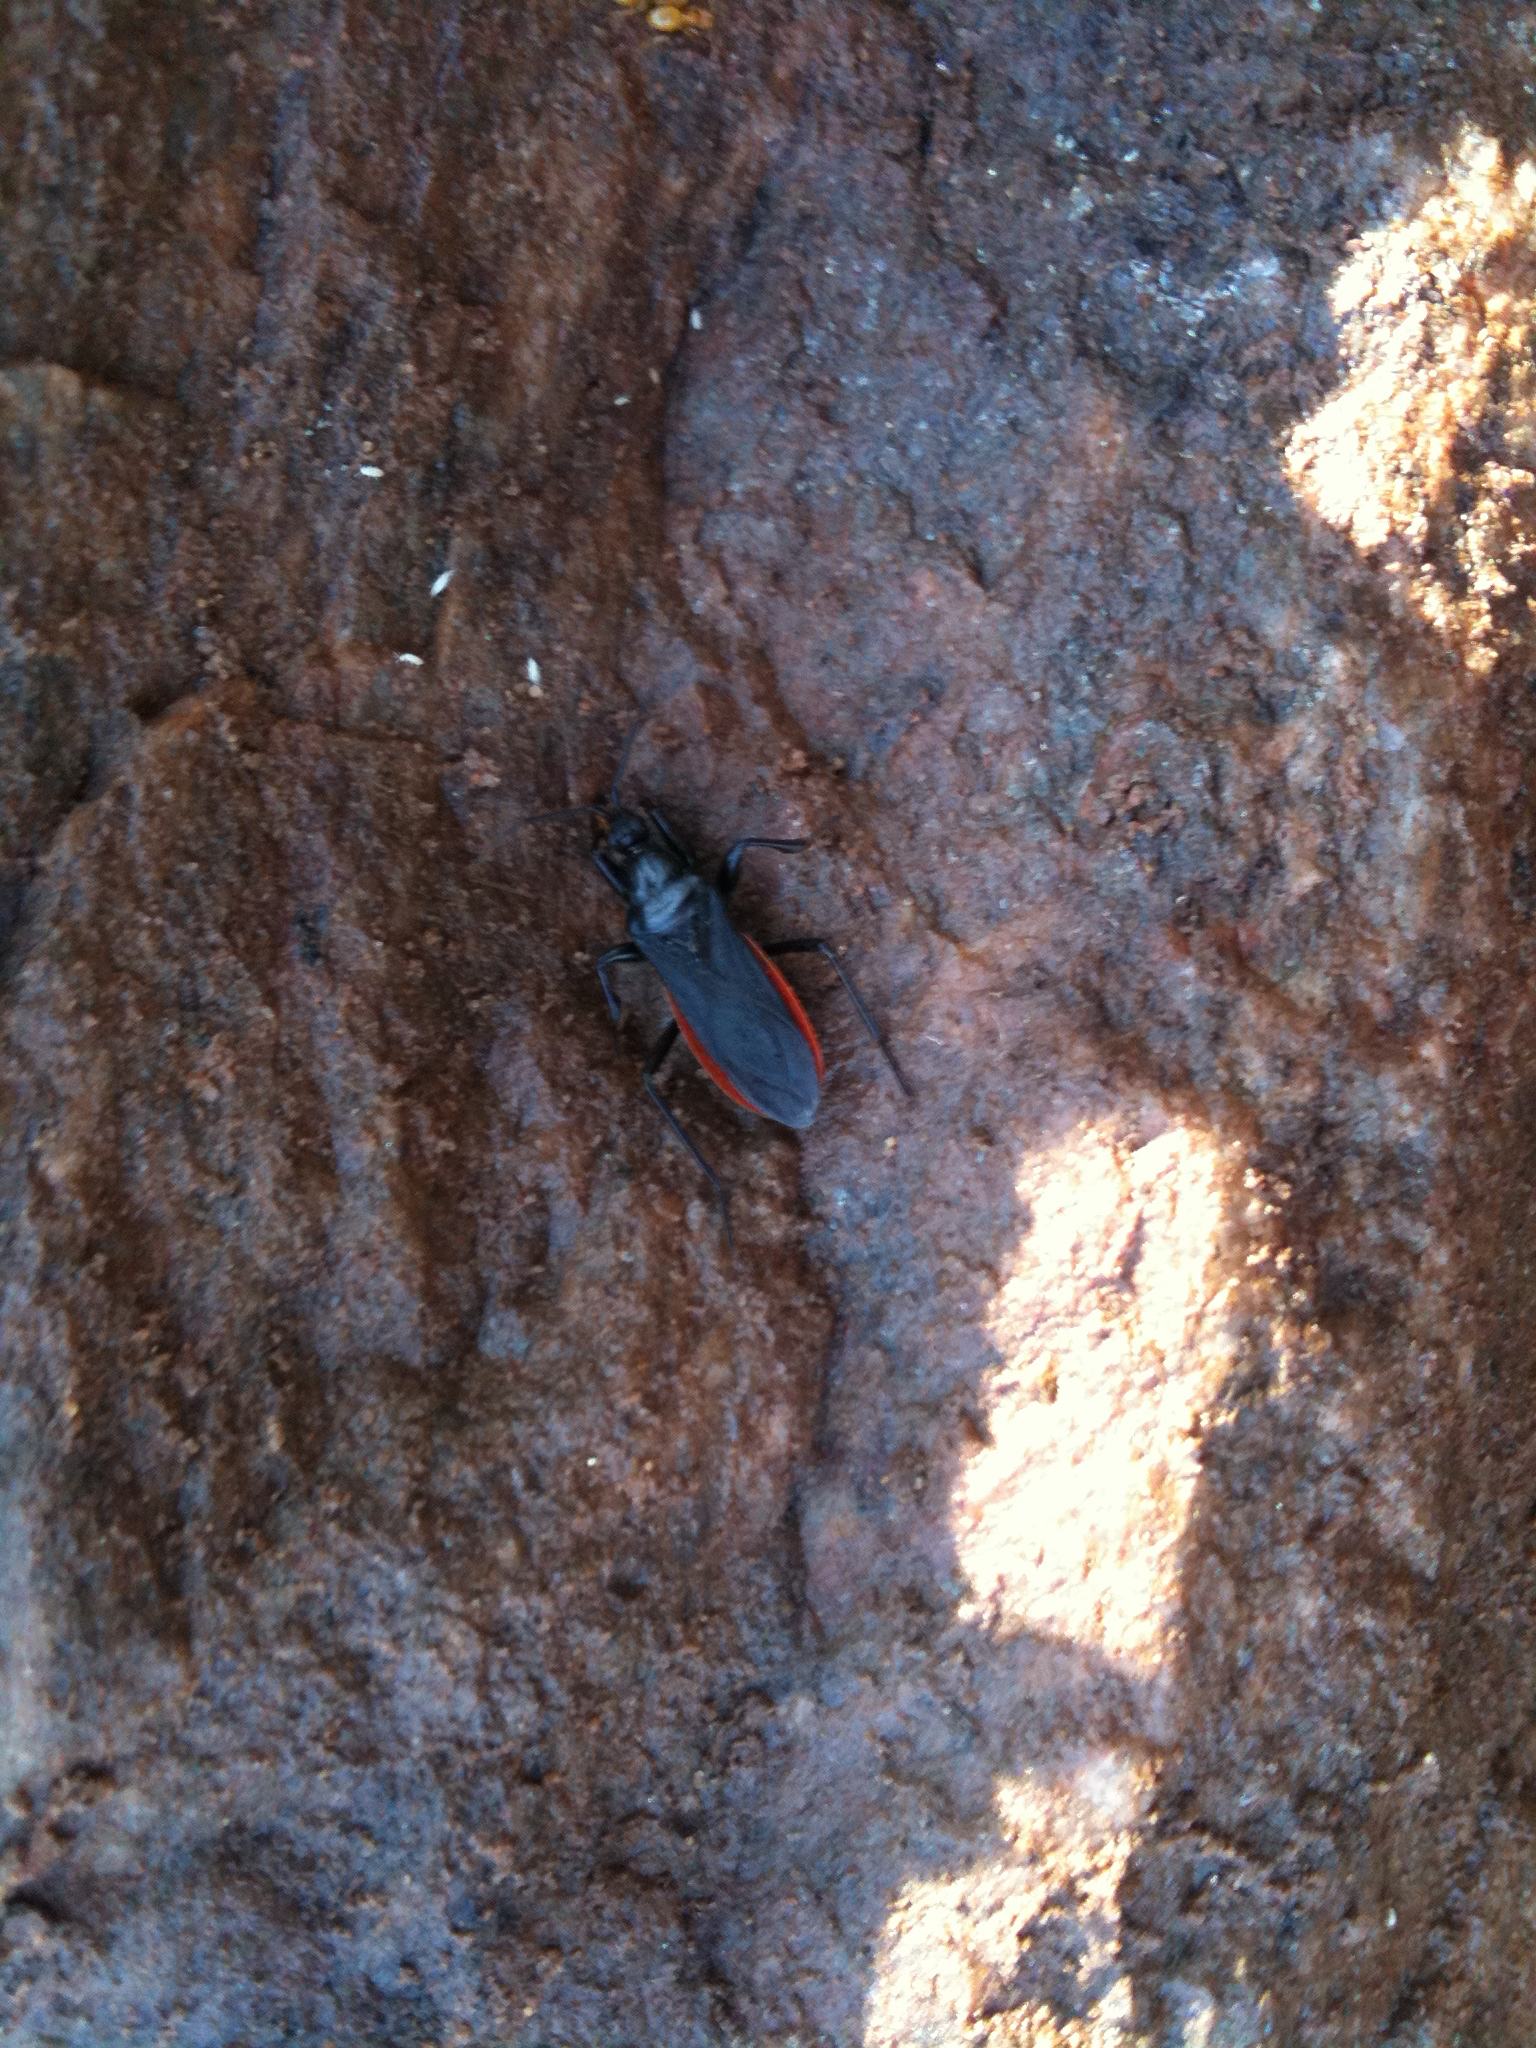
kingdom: Animalia
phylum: Arthropoda
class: Insecta
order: Hemiptera
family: Reduviidae
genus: Melanolestes
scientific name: Melanolestes picipes
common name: Assassin bug
